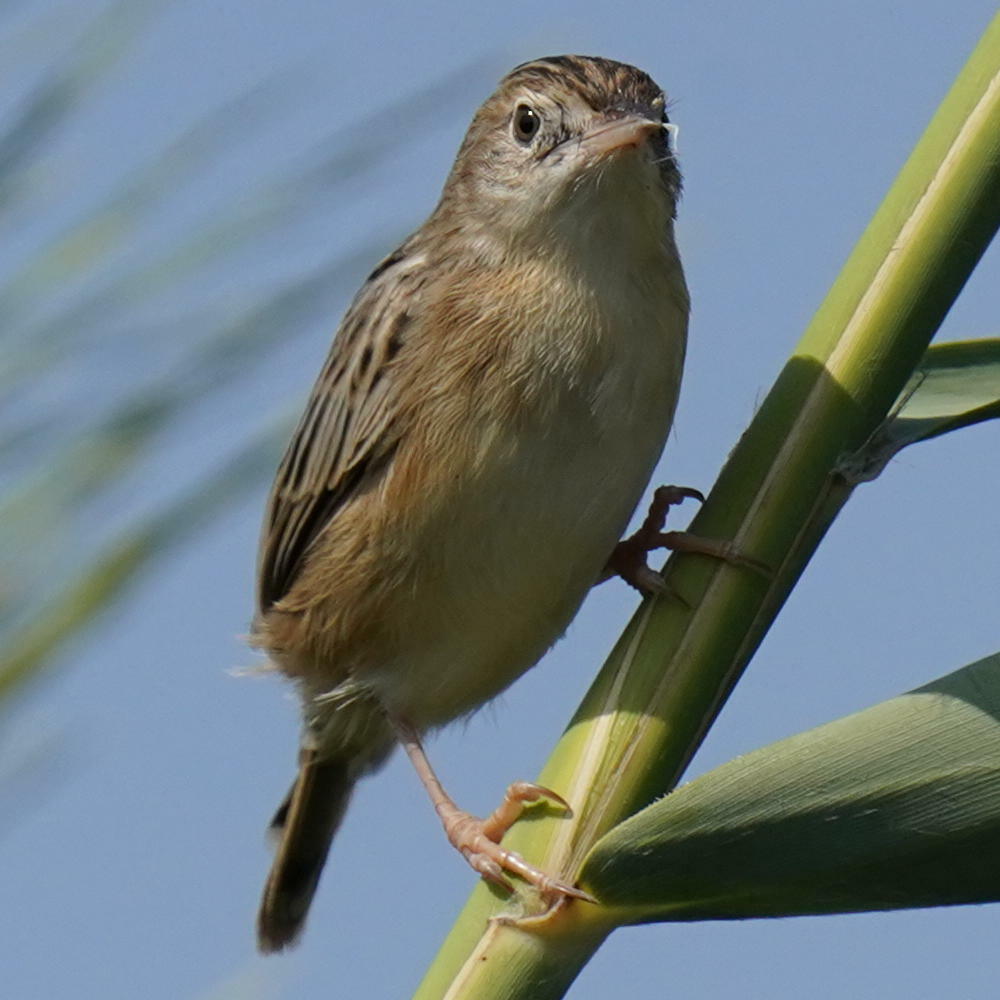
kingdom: Animalia
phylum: Chordata
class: Aves
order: Passeriformes
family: Cisticolidae
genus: Cisticola
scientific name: Cisticola juncidis
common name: Zitting cisticola
